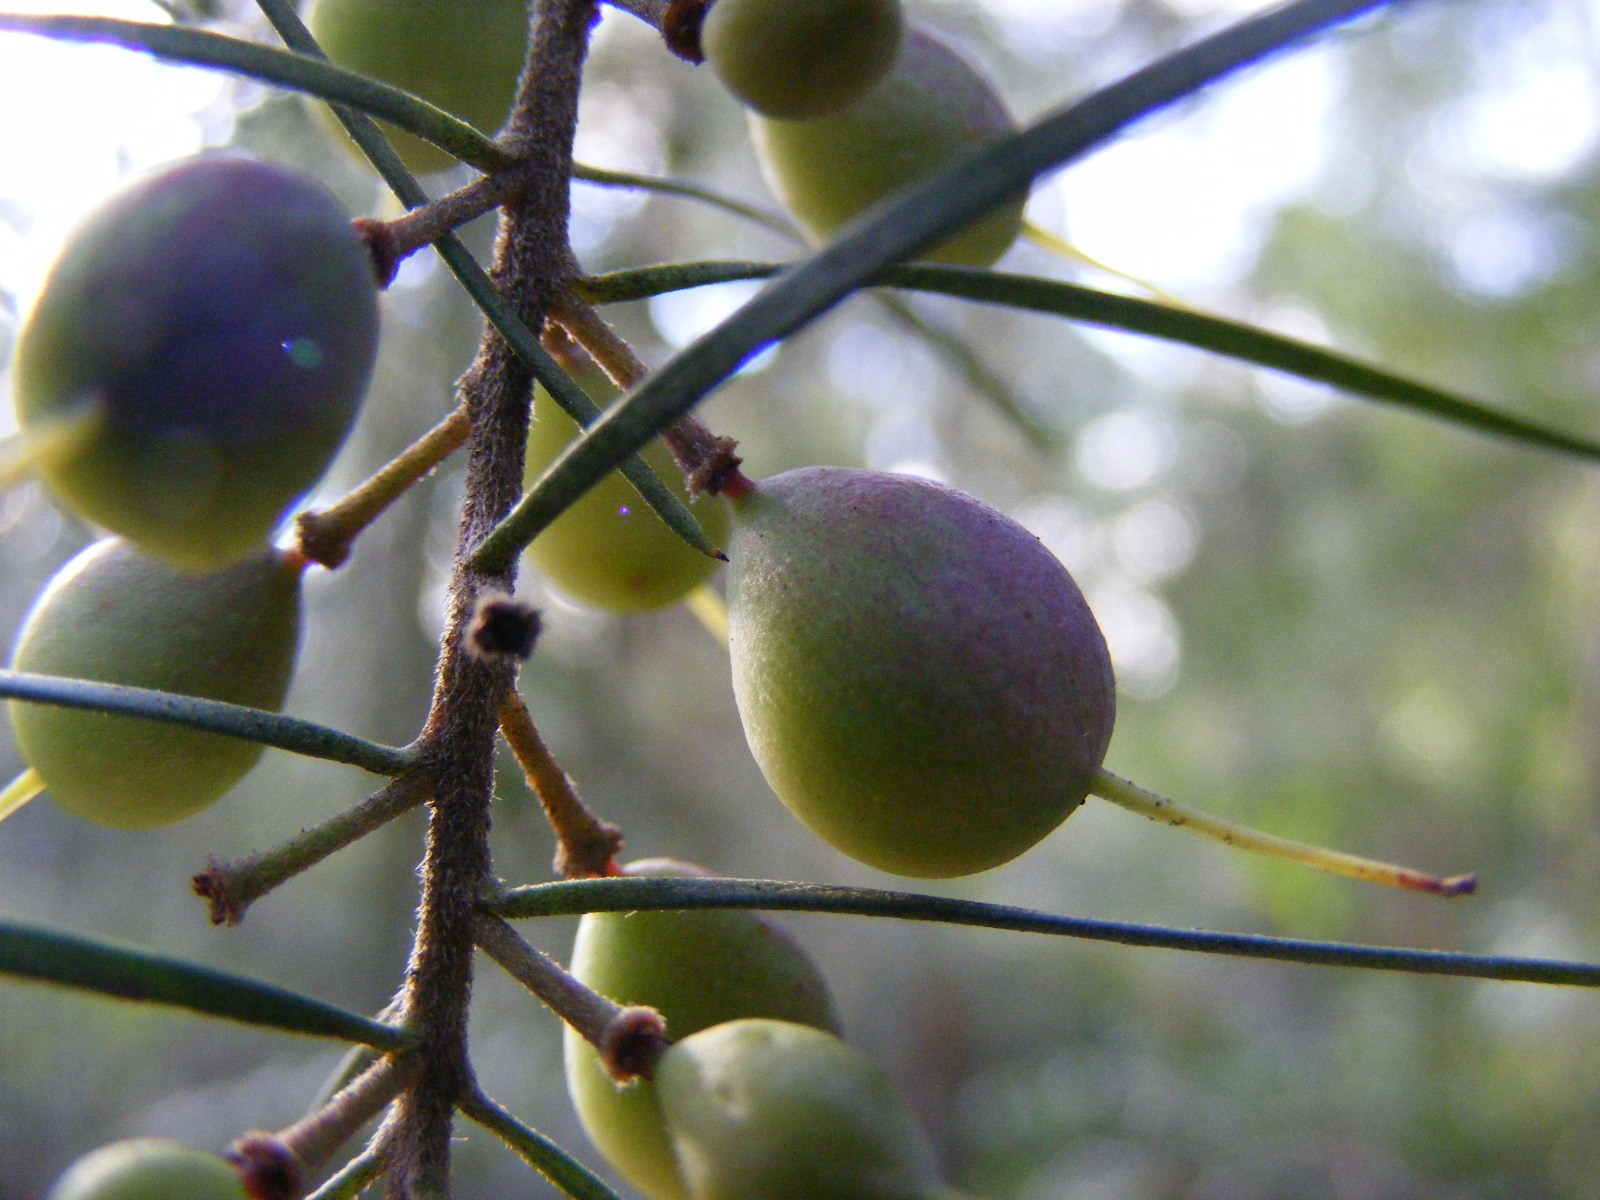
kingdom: Plantae
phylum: Tracheophyta
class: Magnoliopsida
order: Proteales
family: Proteaceae
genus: Persoonia
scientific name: Persoonia linearis
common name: Narrow-leaf geebung
